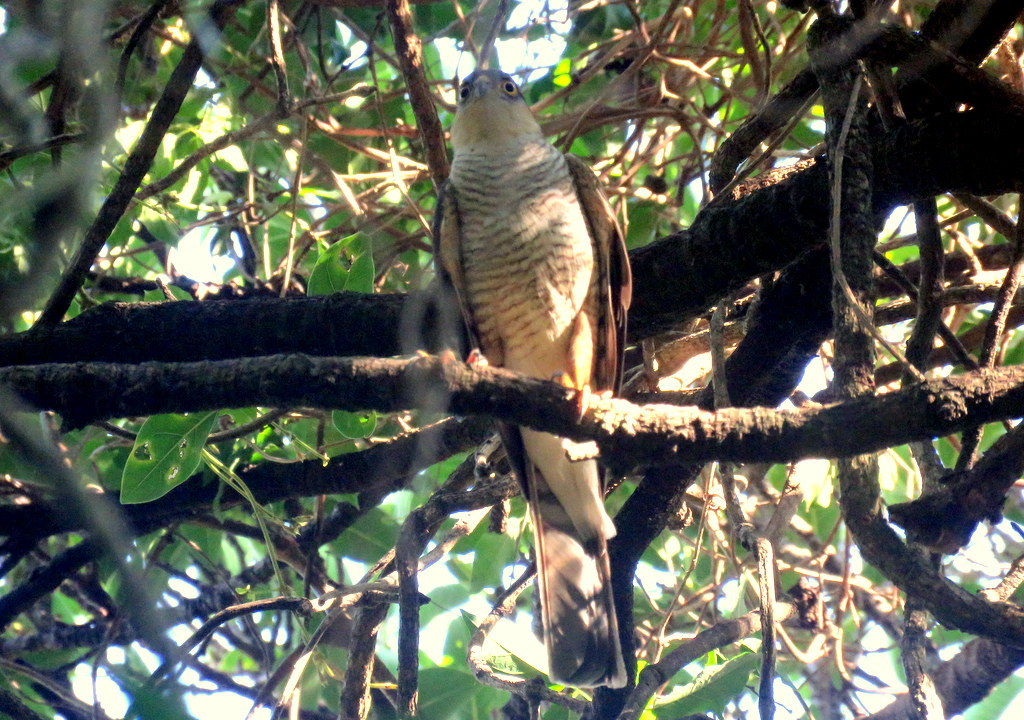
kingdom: Animalia
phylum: Chordata
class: Aves
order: Accipitriformes
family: Accipitridae
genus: Accipiter
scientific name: Accipiter striatus
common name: Sharp-shinned hawk
